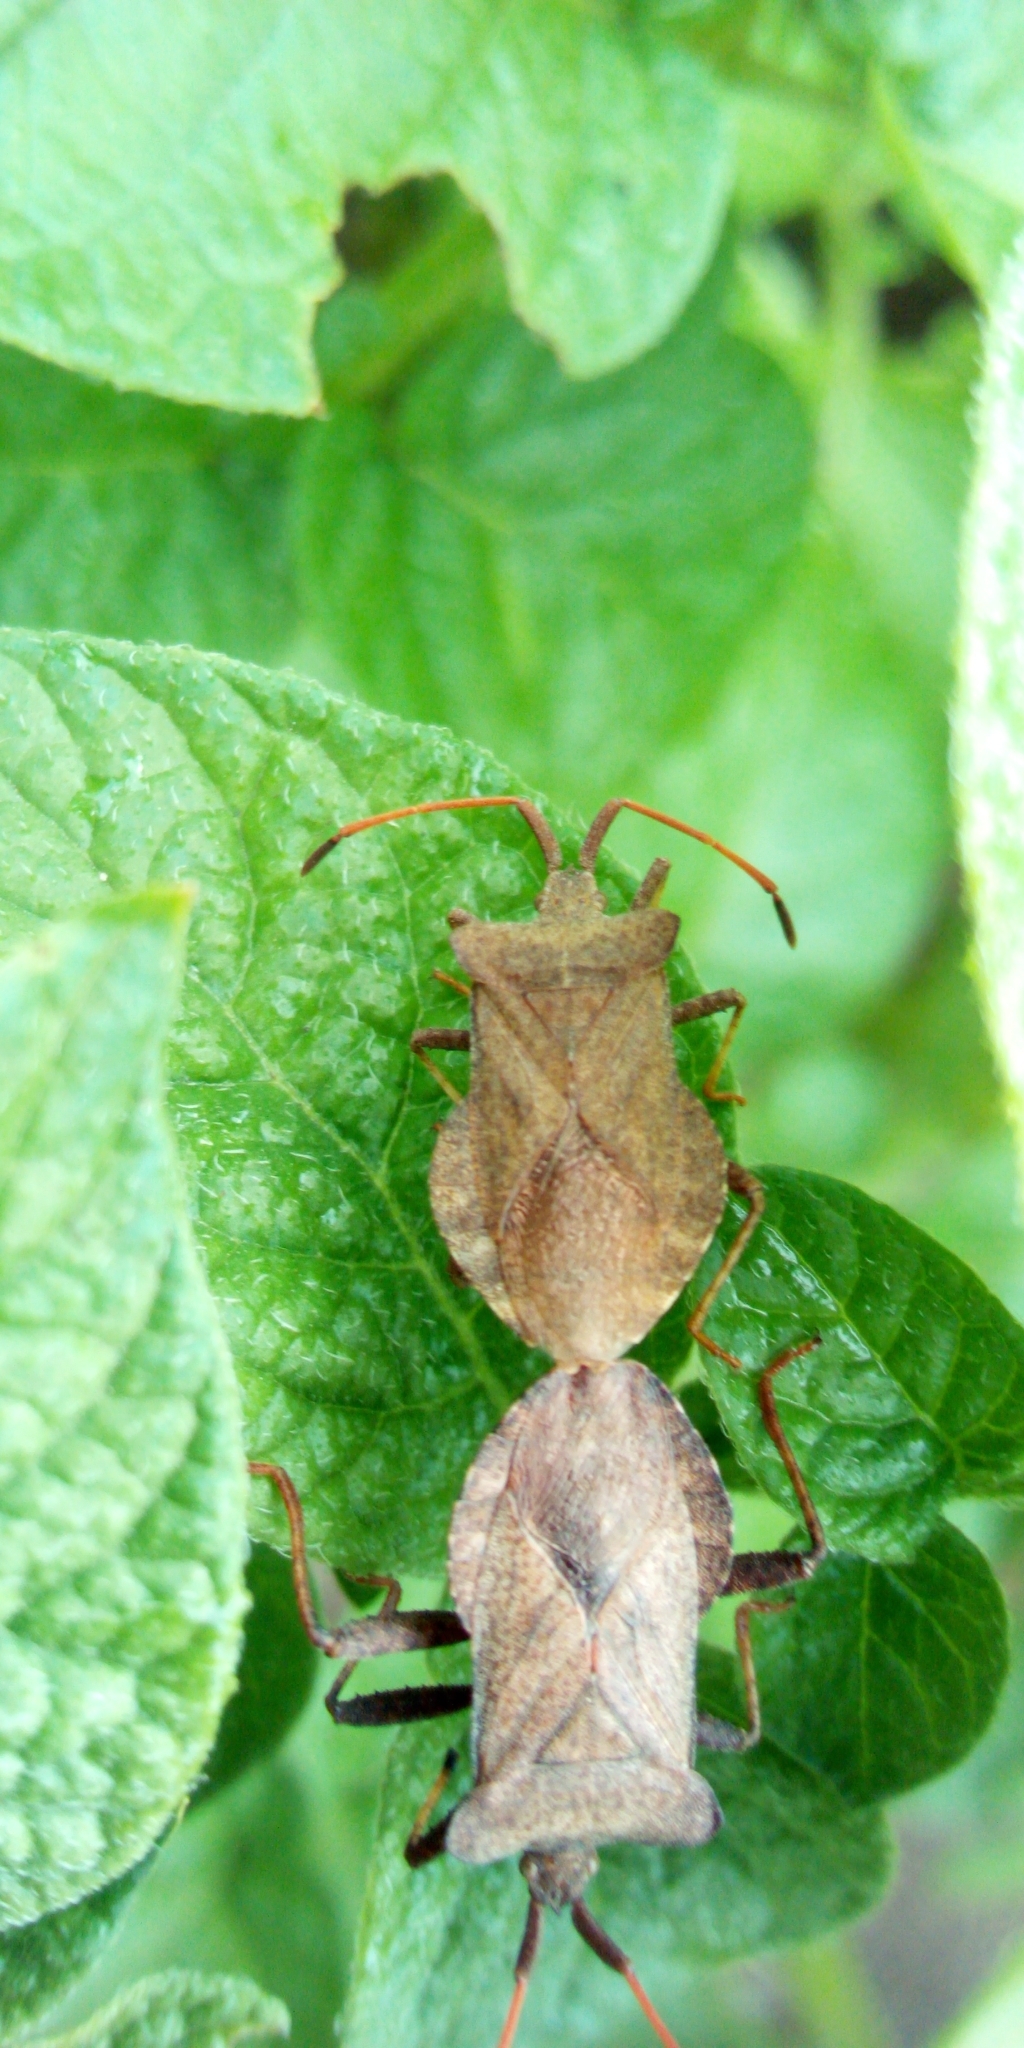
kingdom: Animalia
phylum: Arthropoda
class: Insecta
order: Hemiptera
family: Coreidae
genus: Coreus
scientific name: Coreus marginatus
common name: Dock bug
